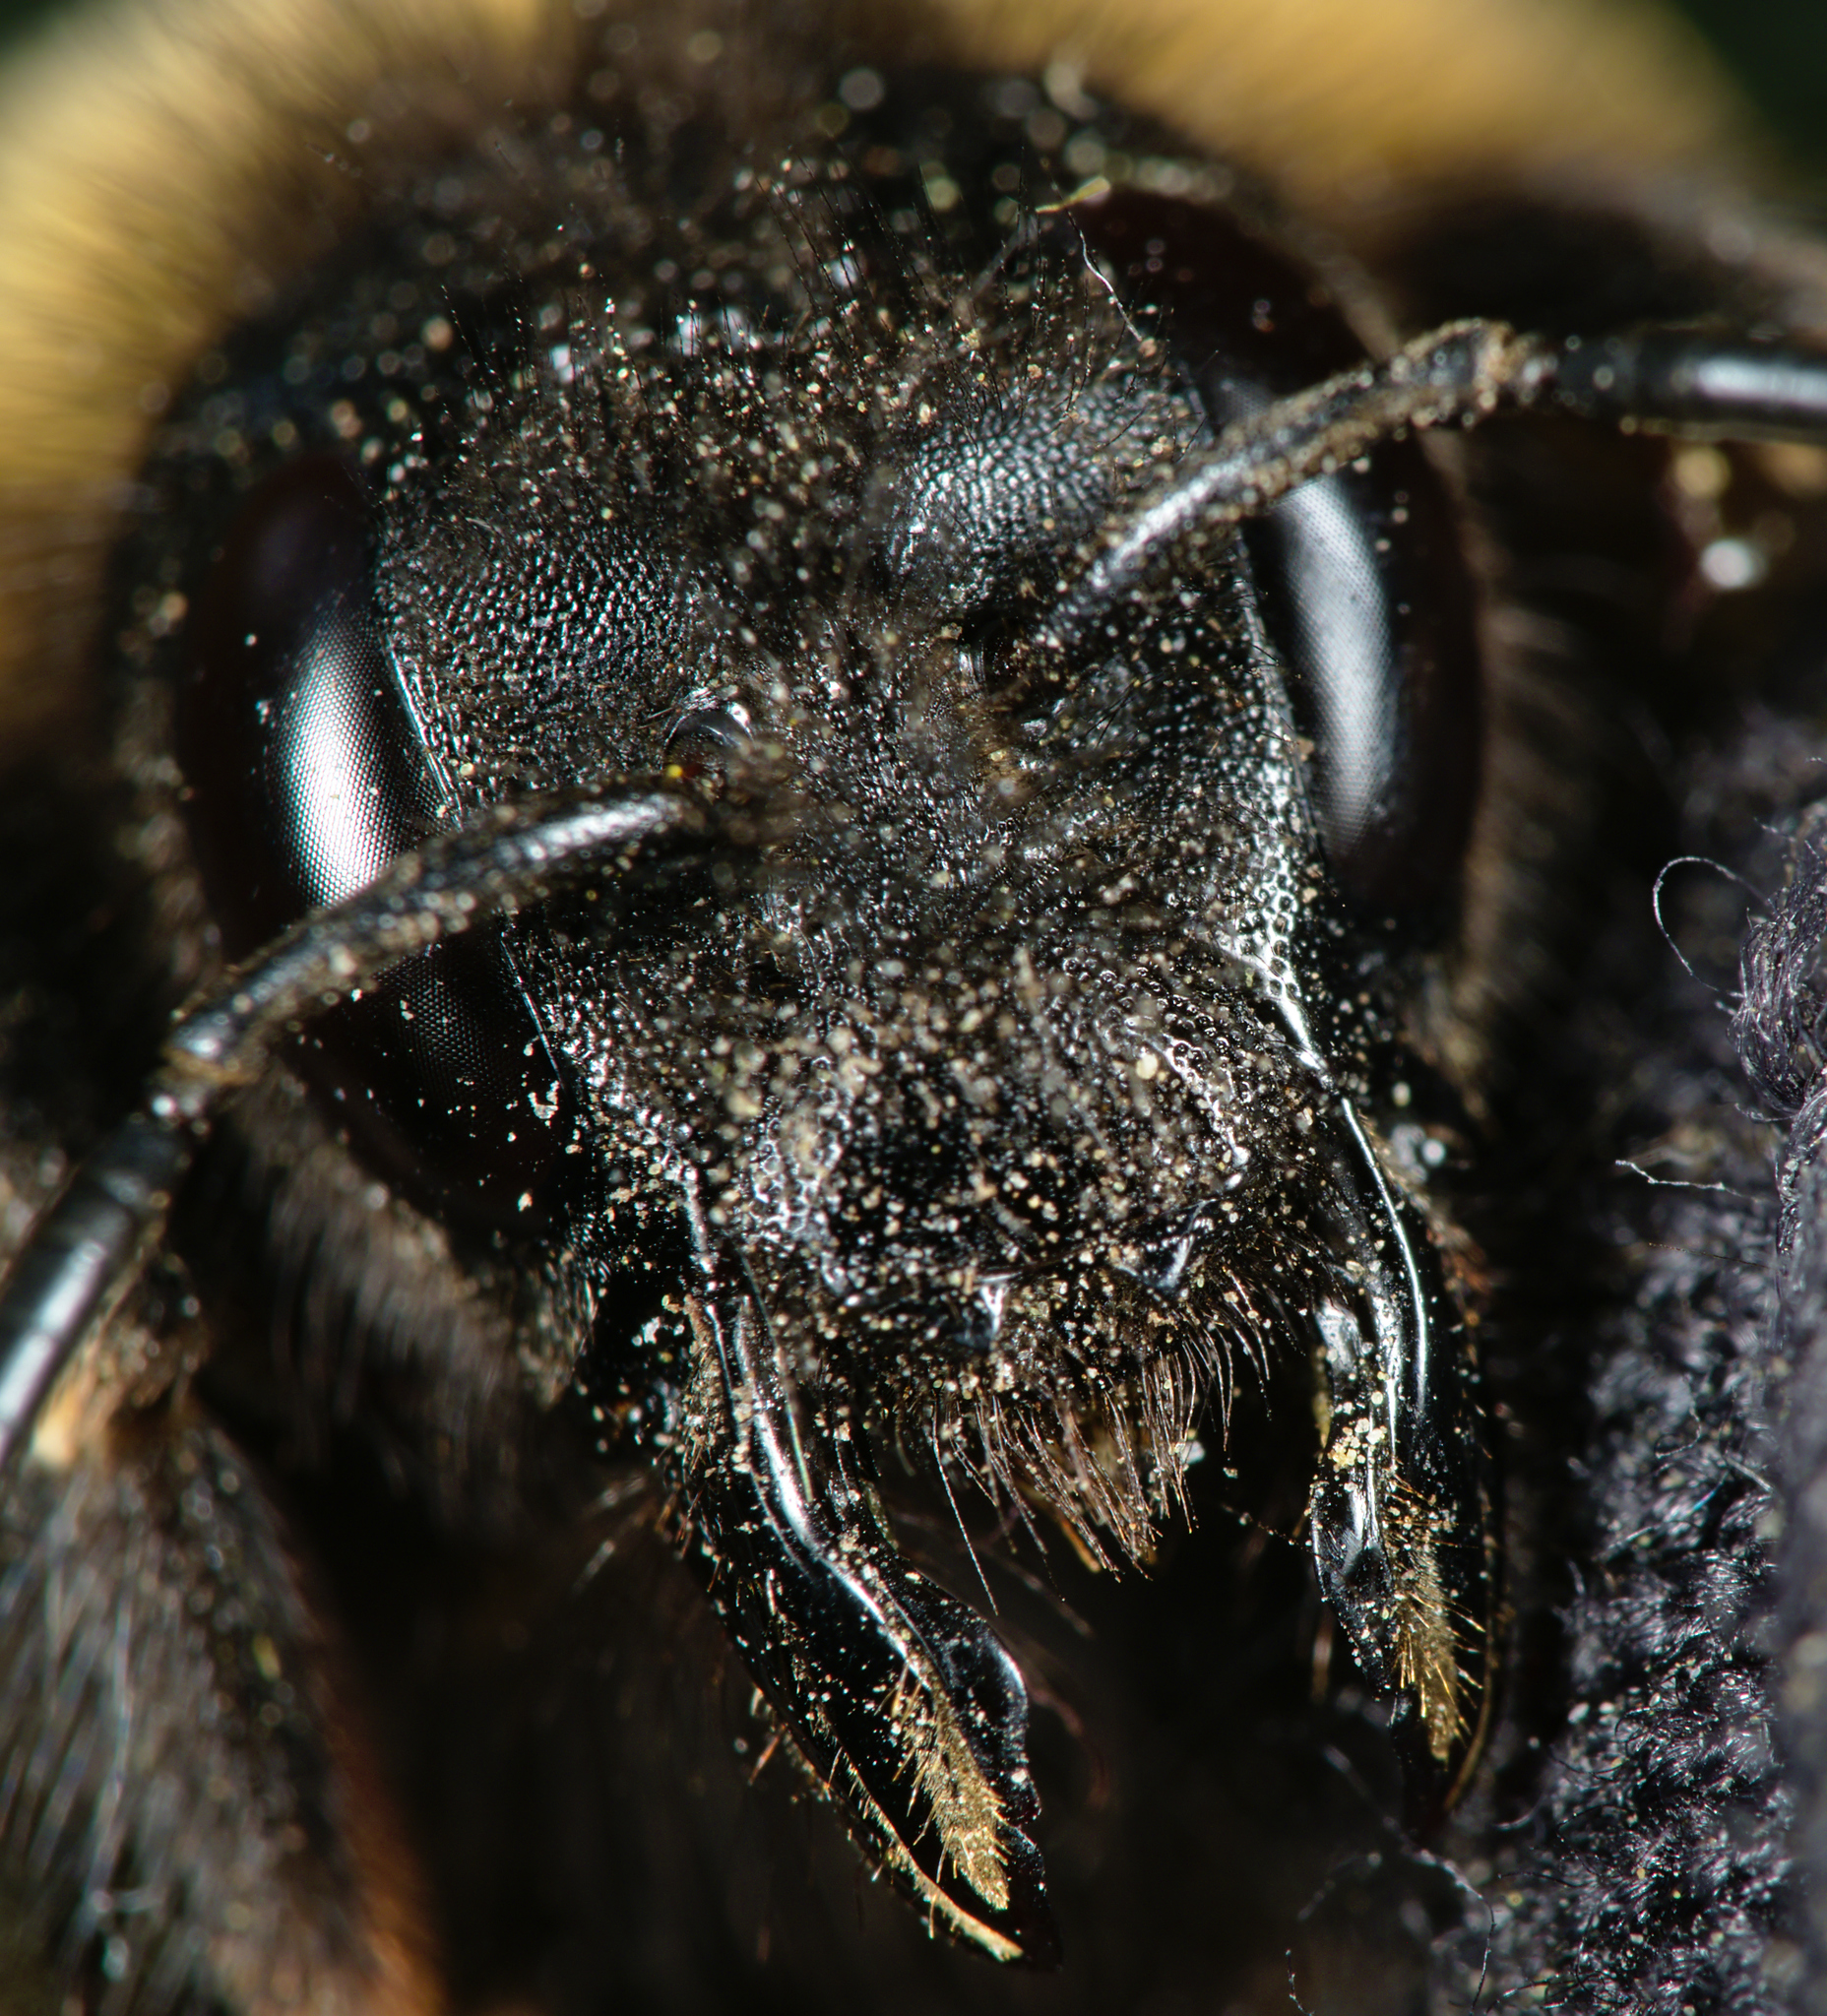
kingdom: Animalia
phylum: Arthropoda
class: Insecta
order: Hymenoptera
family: Apidae
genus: Bombus
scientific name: Bombus vestalis
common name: Vestal cuckoo bee
